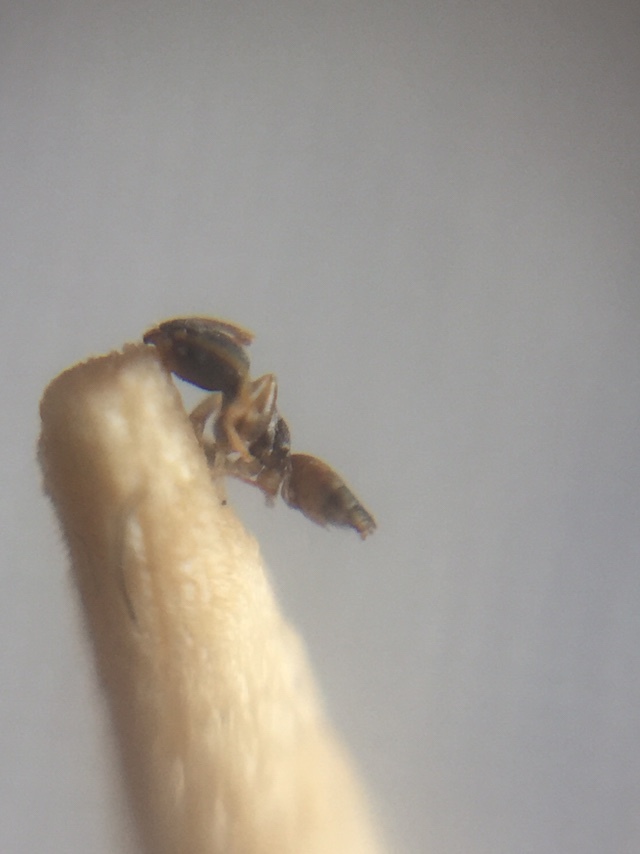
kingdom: Animalia
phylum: Arthropoda
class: Insecta
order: Hymenoptera
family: Formicidae
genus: Tapinoma
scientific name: Tapinoma melanocephalum
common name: Ghost ant
